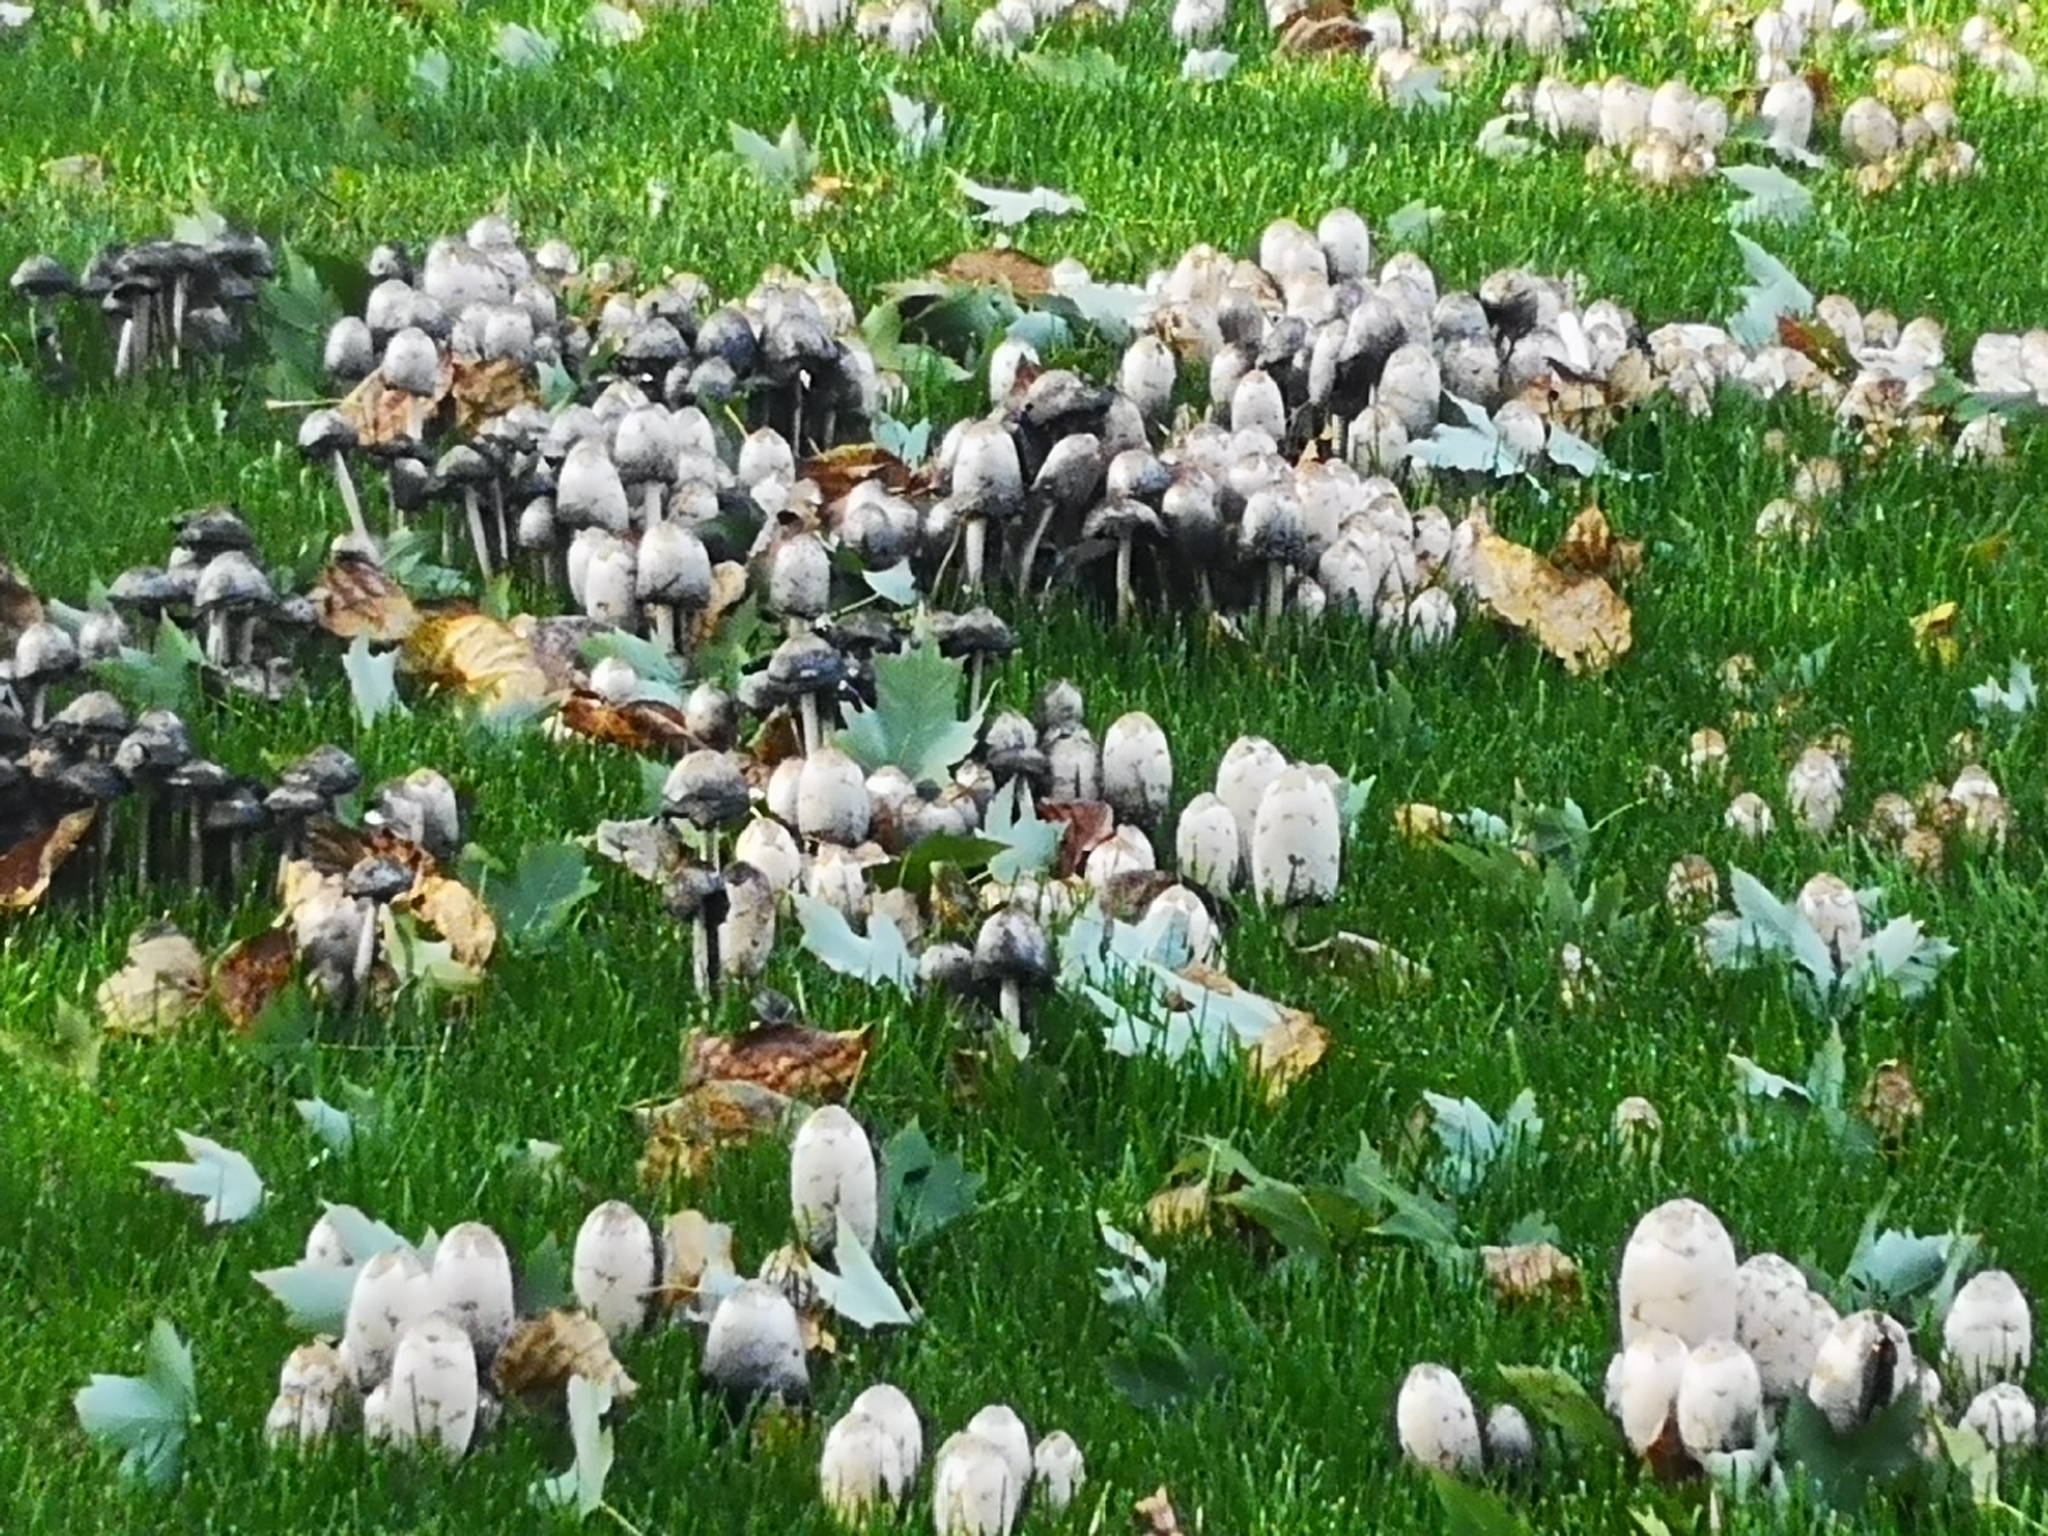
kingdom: Fungi
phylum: Basidiomycota
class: Agaricomycetes
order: Agaricales
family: Agaricaceae
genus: Coprinus
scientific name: Coprinus comatus
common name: Lawyer's wig
